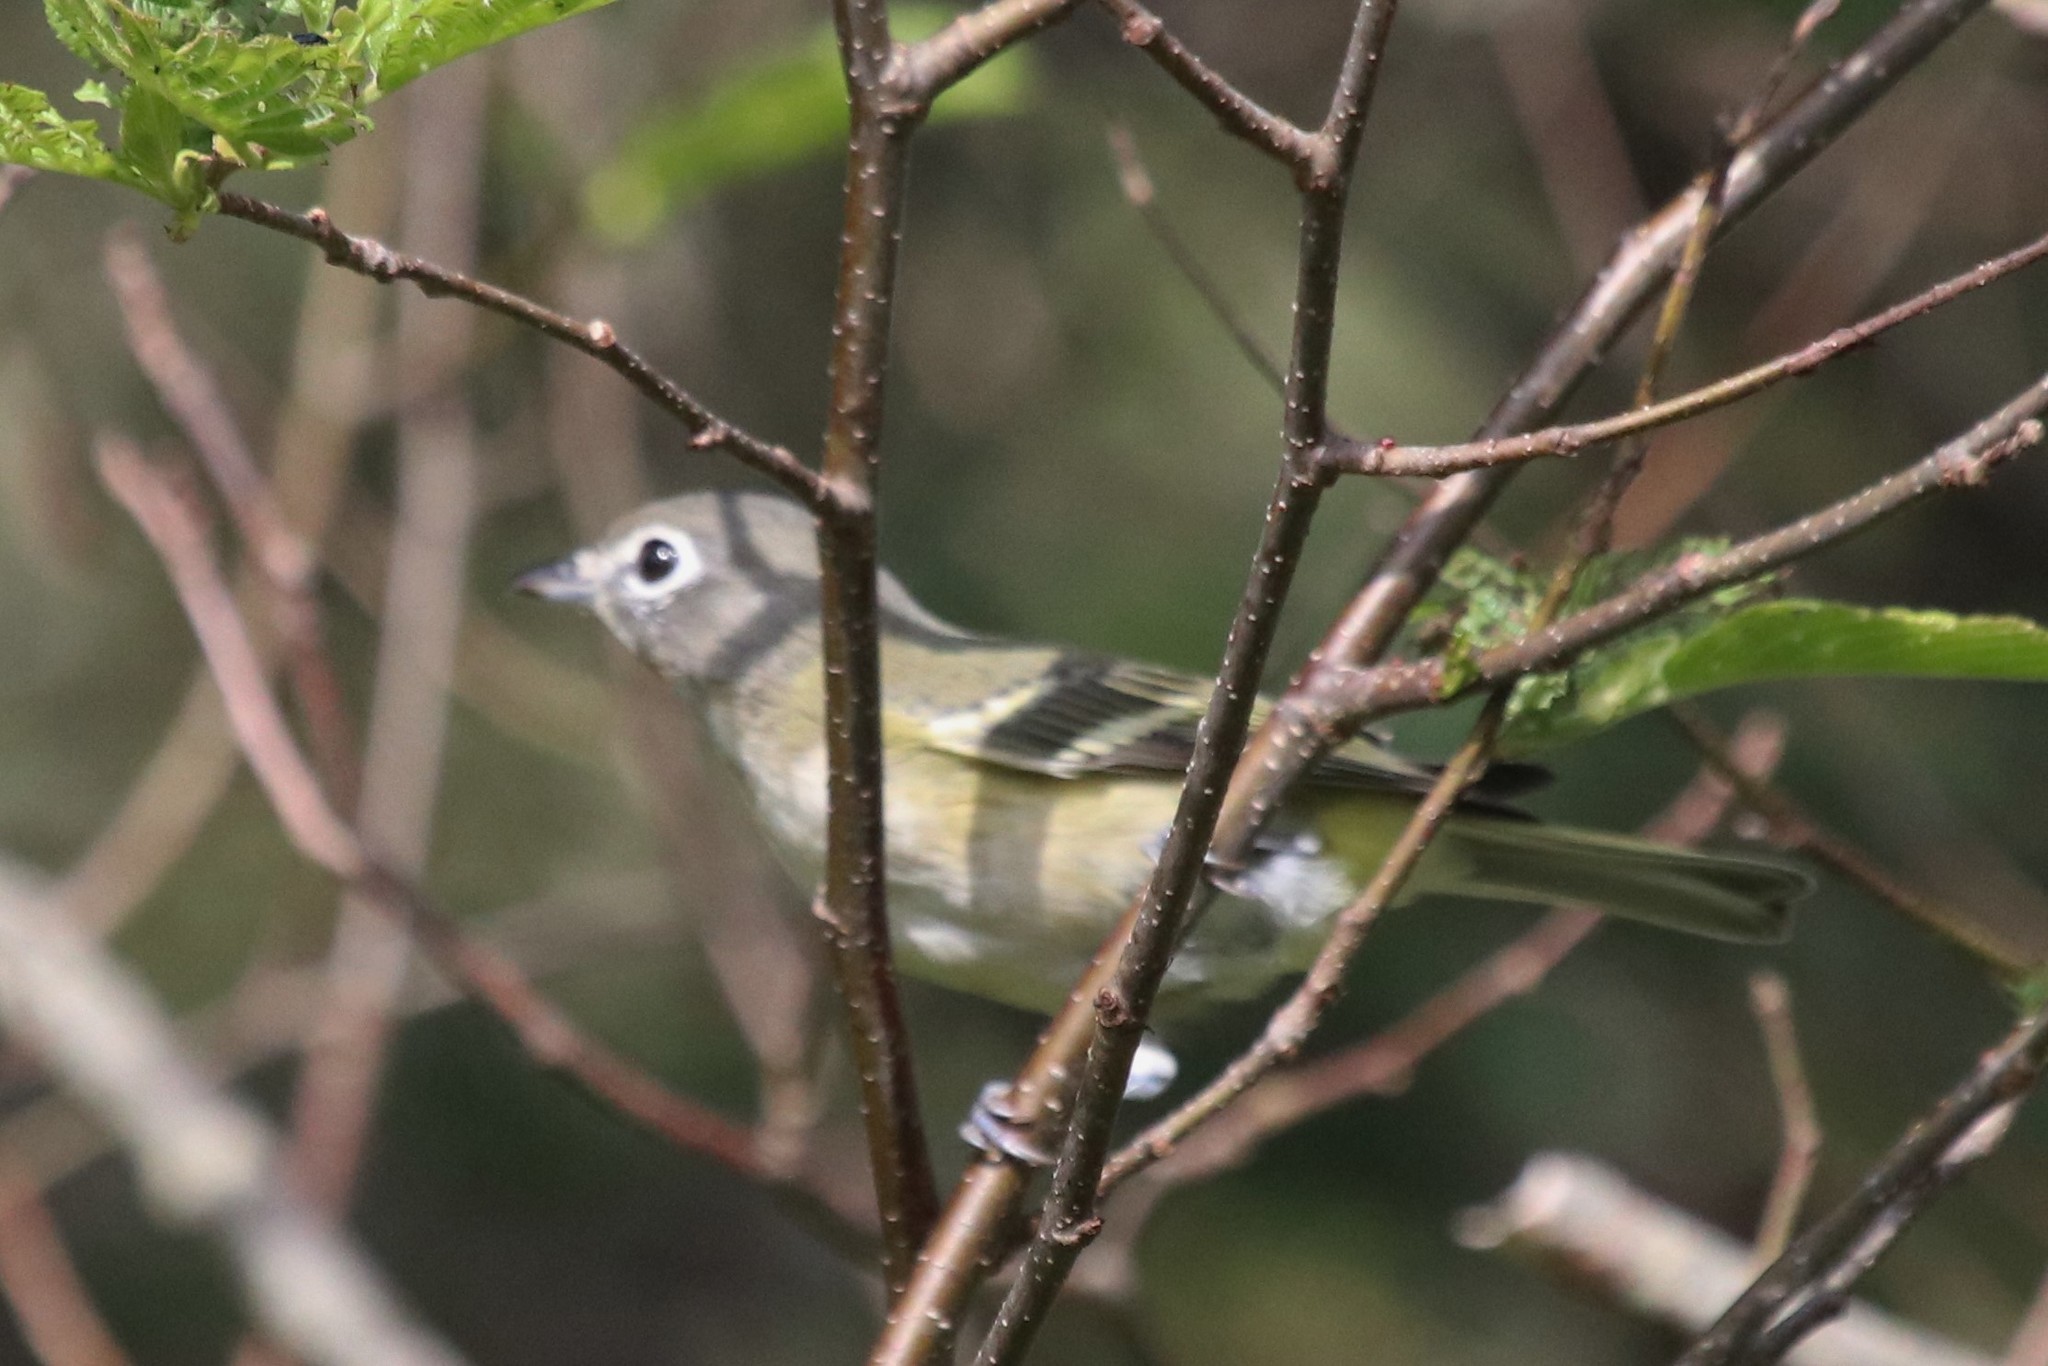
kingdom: Animalia
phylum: Chordata
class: Aves
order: Passeriformes
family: Vireonidae
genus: Vireo
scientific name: Vireo solitarius
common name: Blue-headed vireo
